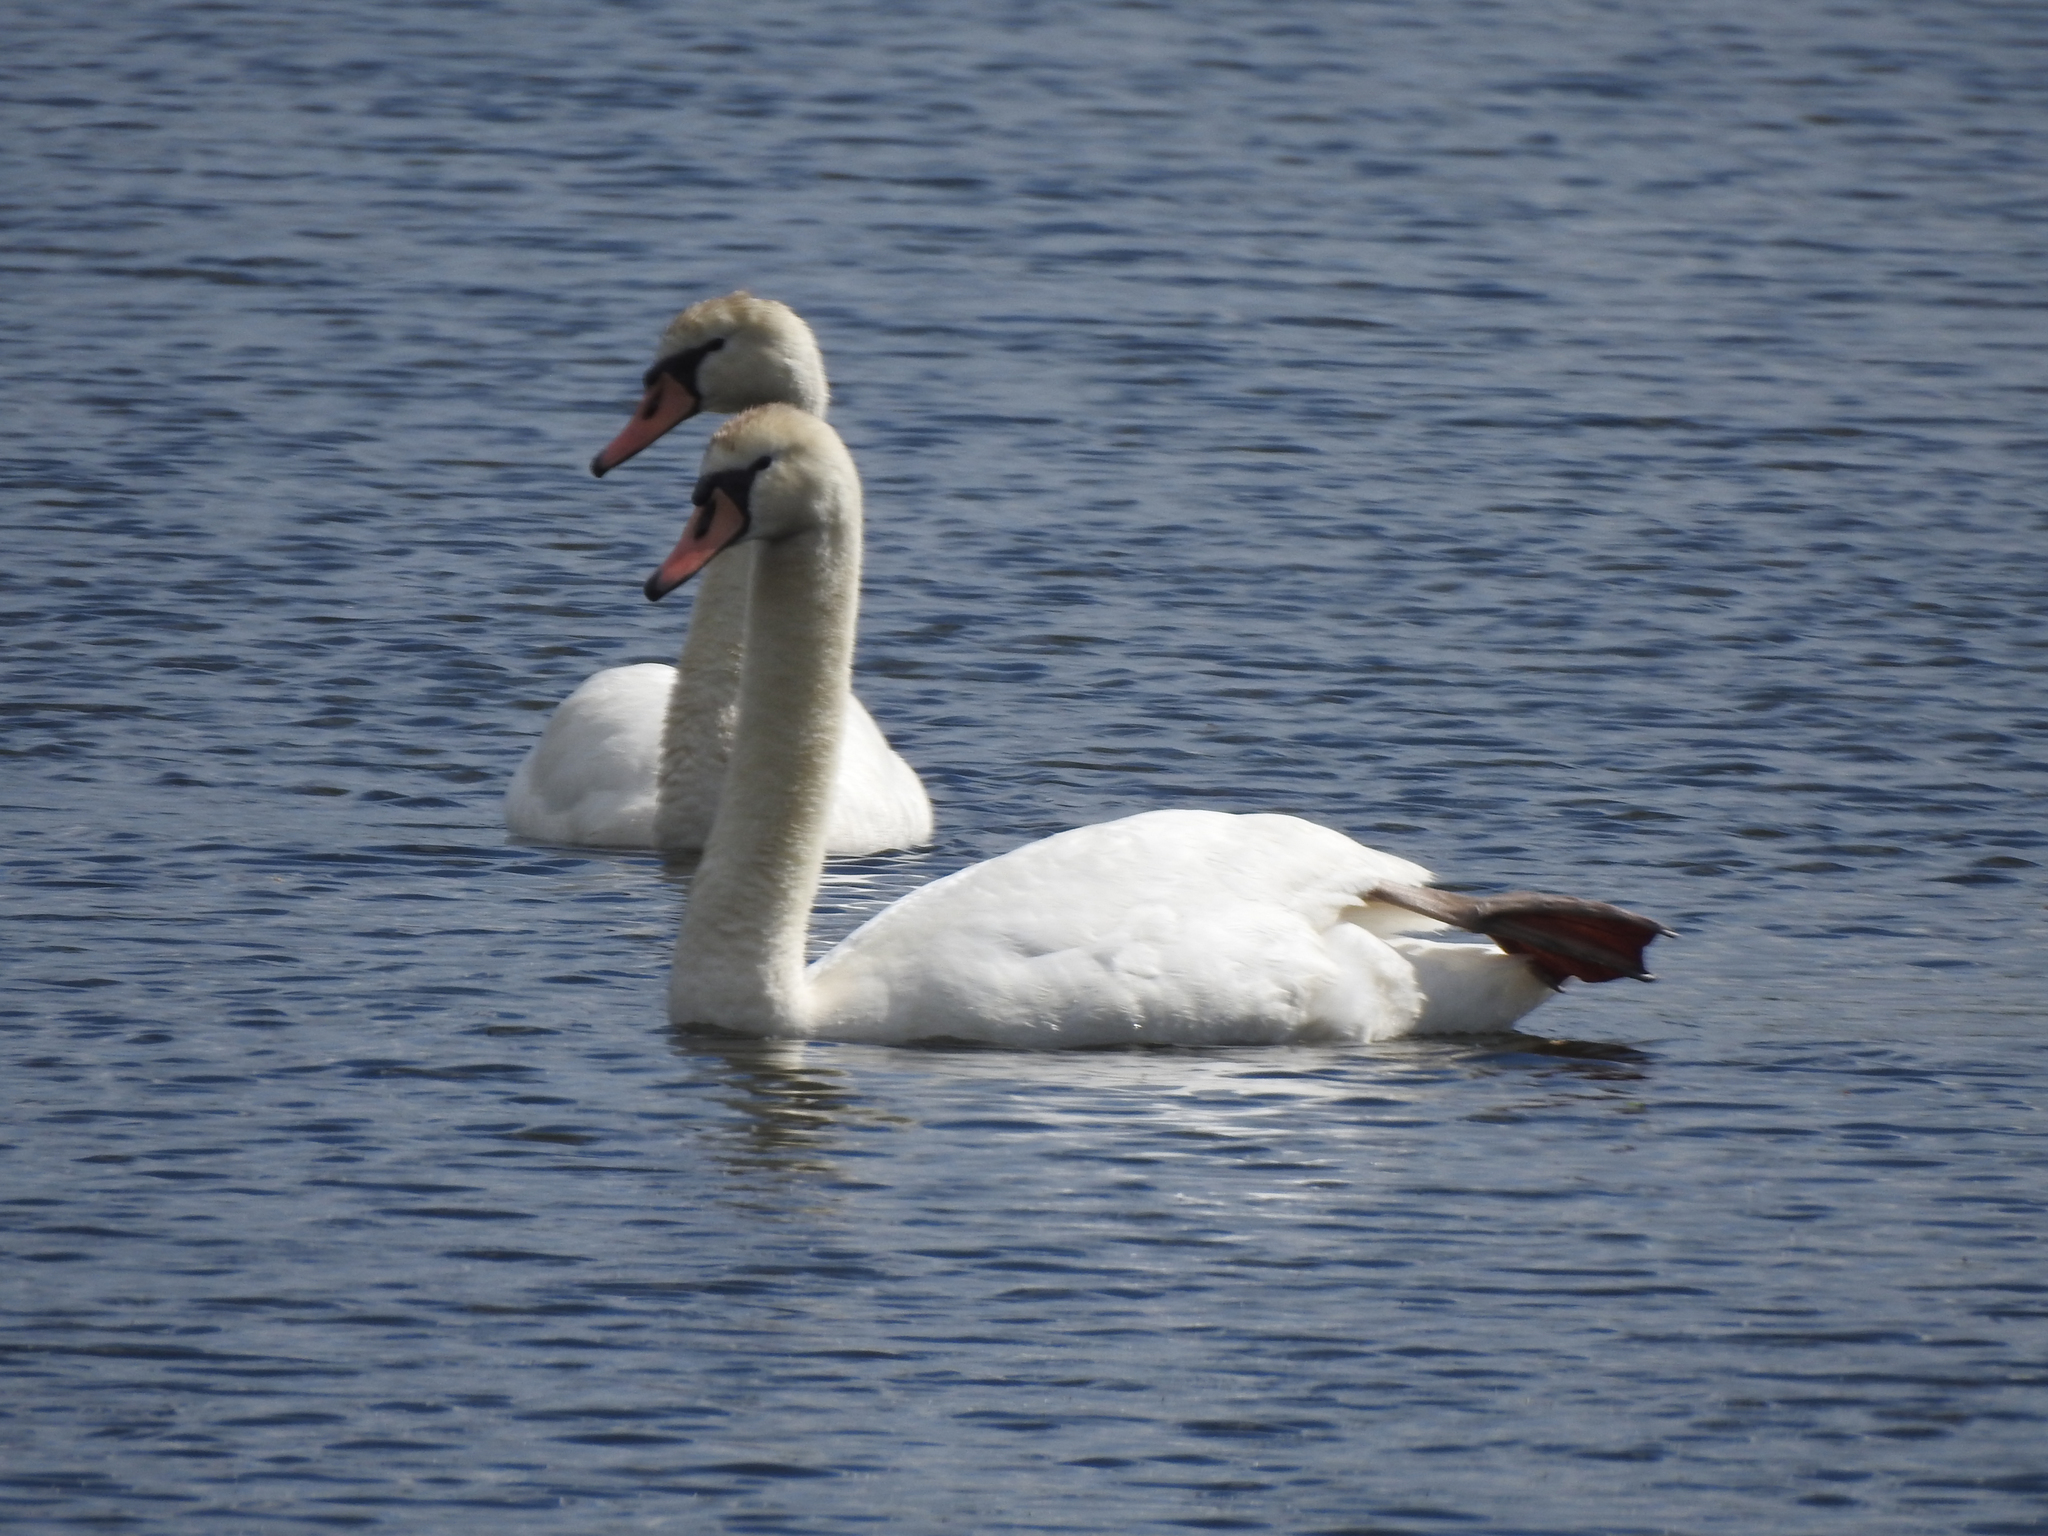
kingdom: Animalia
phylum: Chordata
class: Aves
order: Anseriformes
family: Anatidae
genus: Cygnus
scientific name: Cygnus olor
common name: Mute swan
